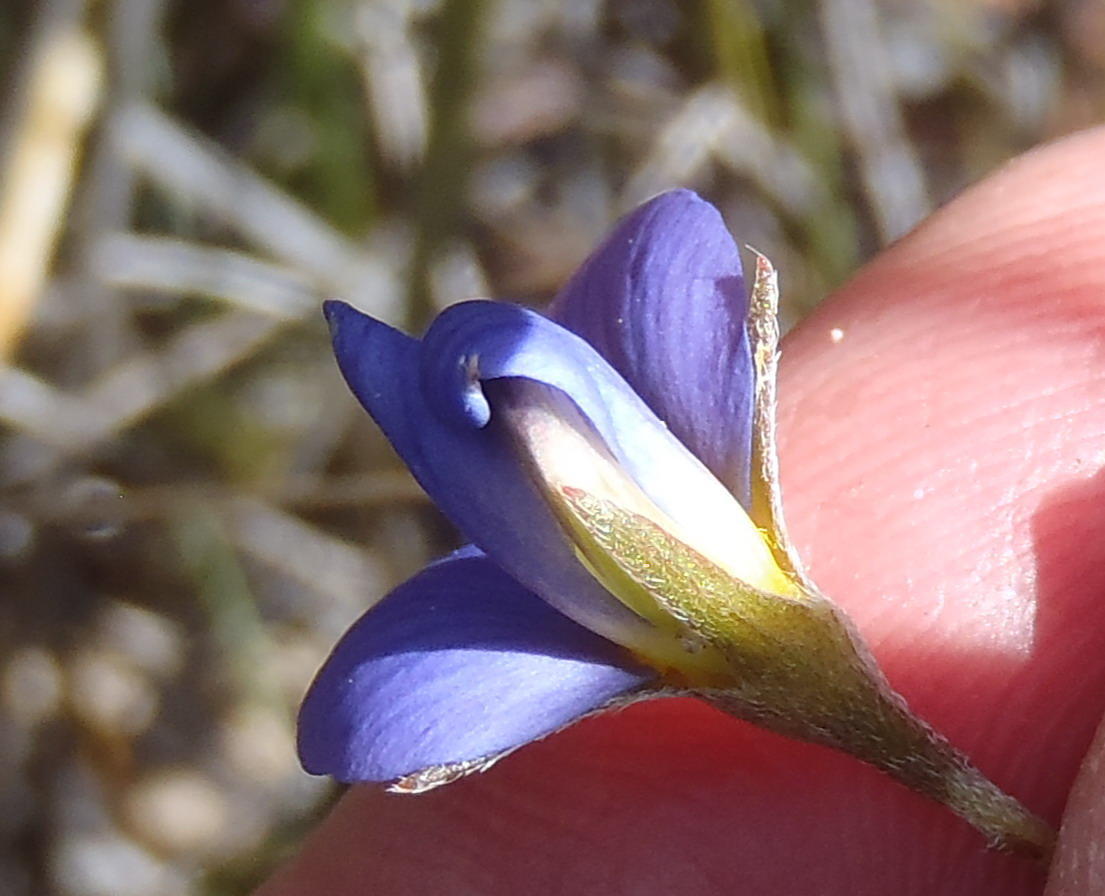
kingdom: Plantae
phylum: Tracheophyta
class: Magnoliopsida
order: Fabales
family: Fabaceae
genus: Lotononis
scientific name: Lotononis filiformis
